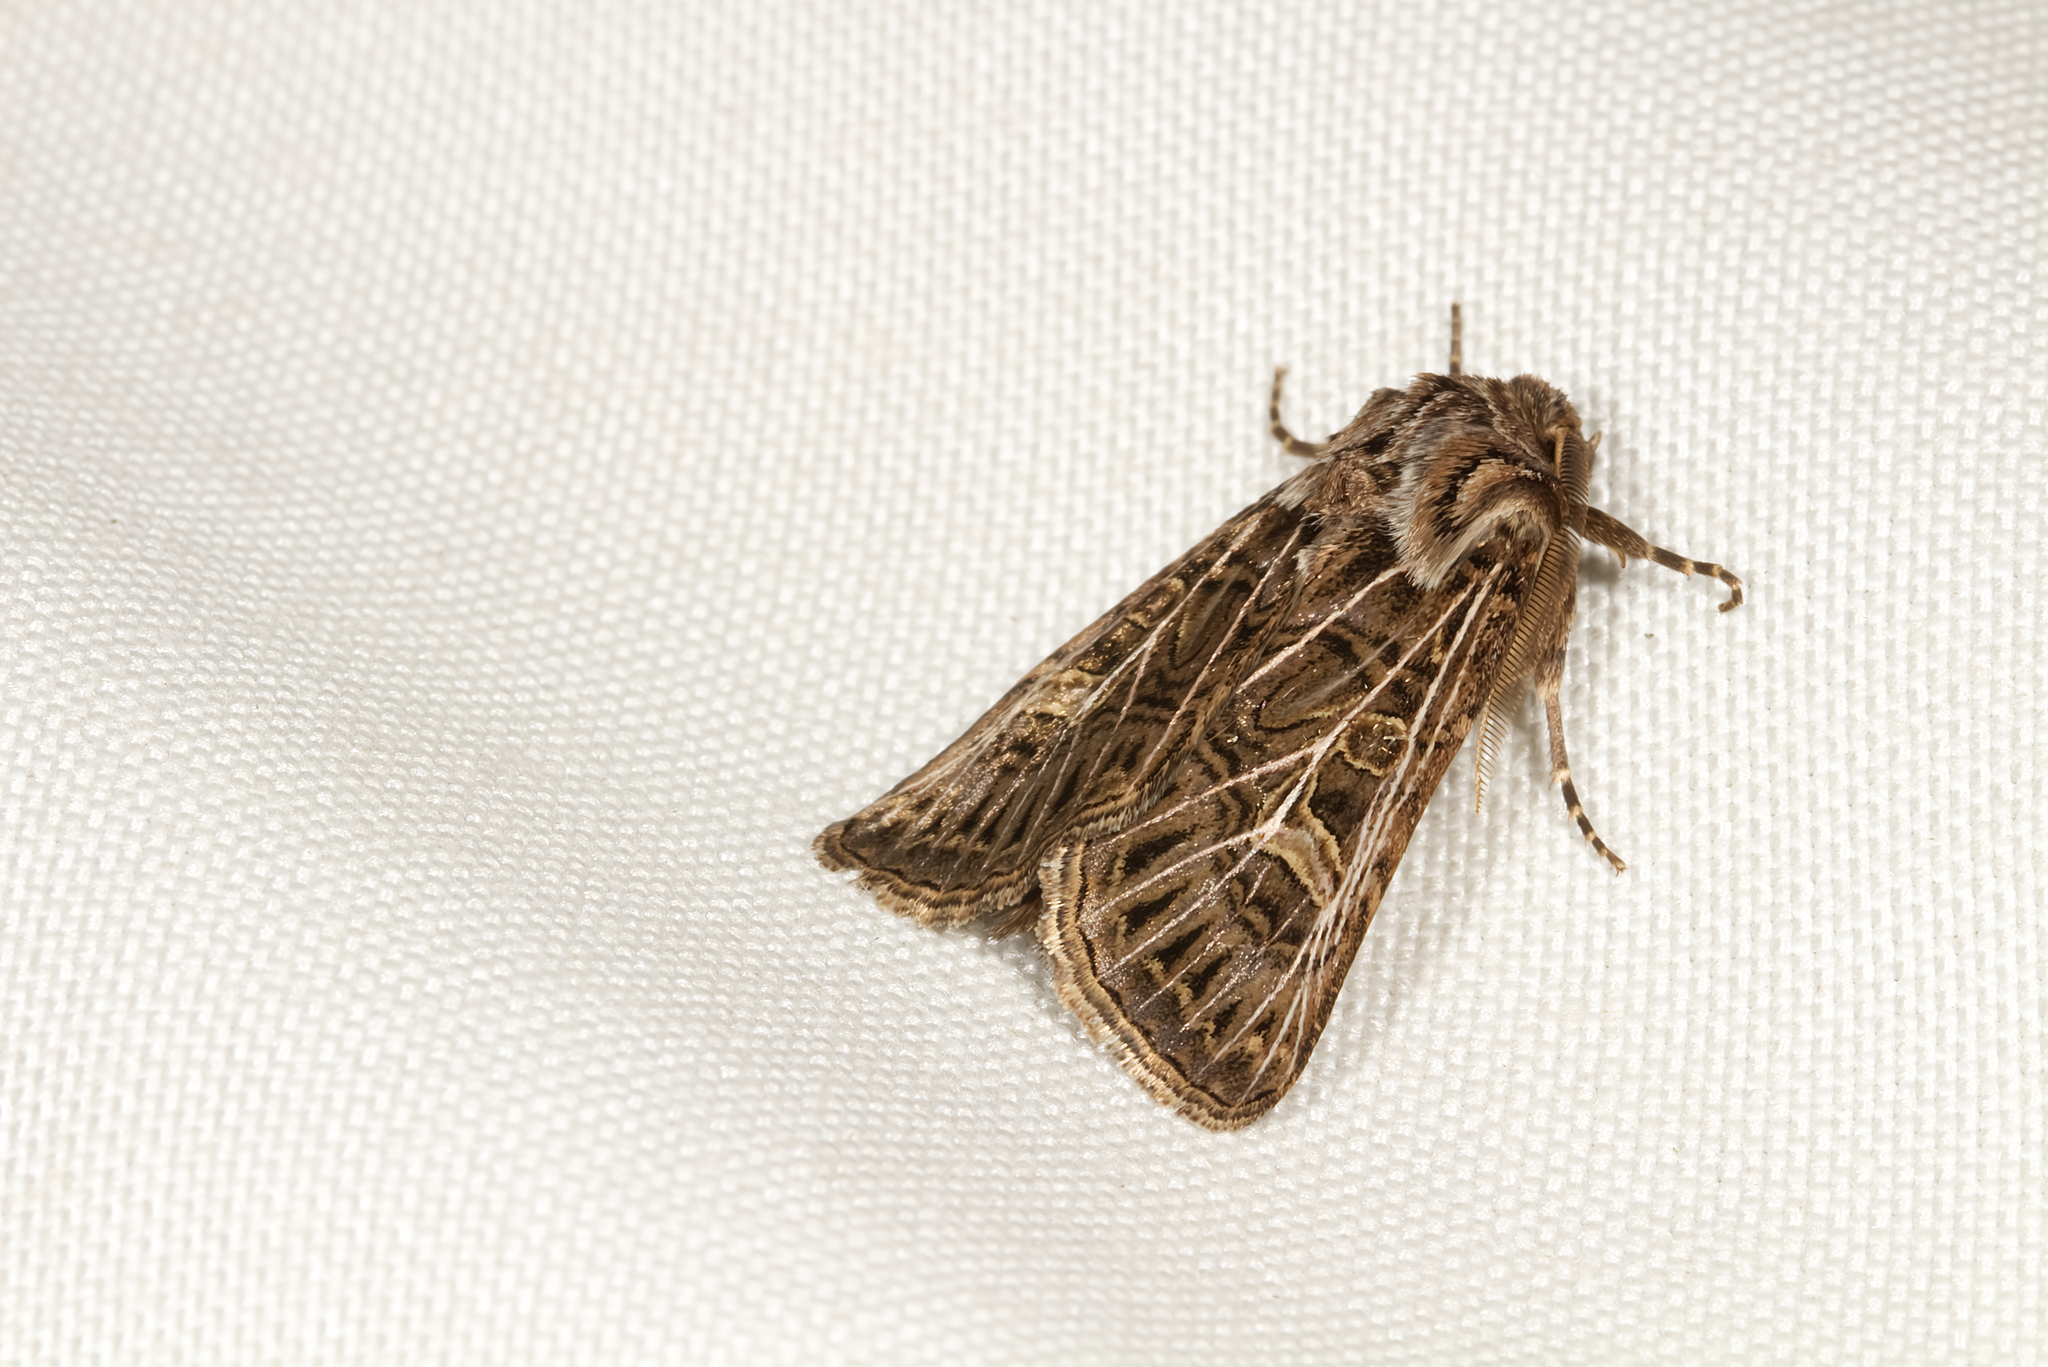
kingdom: Animalia
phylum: Arthropoda
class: Insecta
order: Lepidoptera
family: Noctuidae
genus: Tholera
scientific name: Tholera decimalis
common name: Feathered gothic
